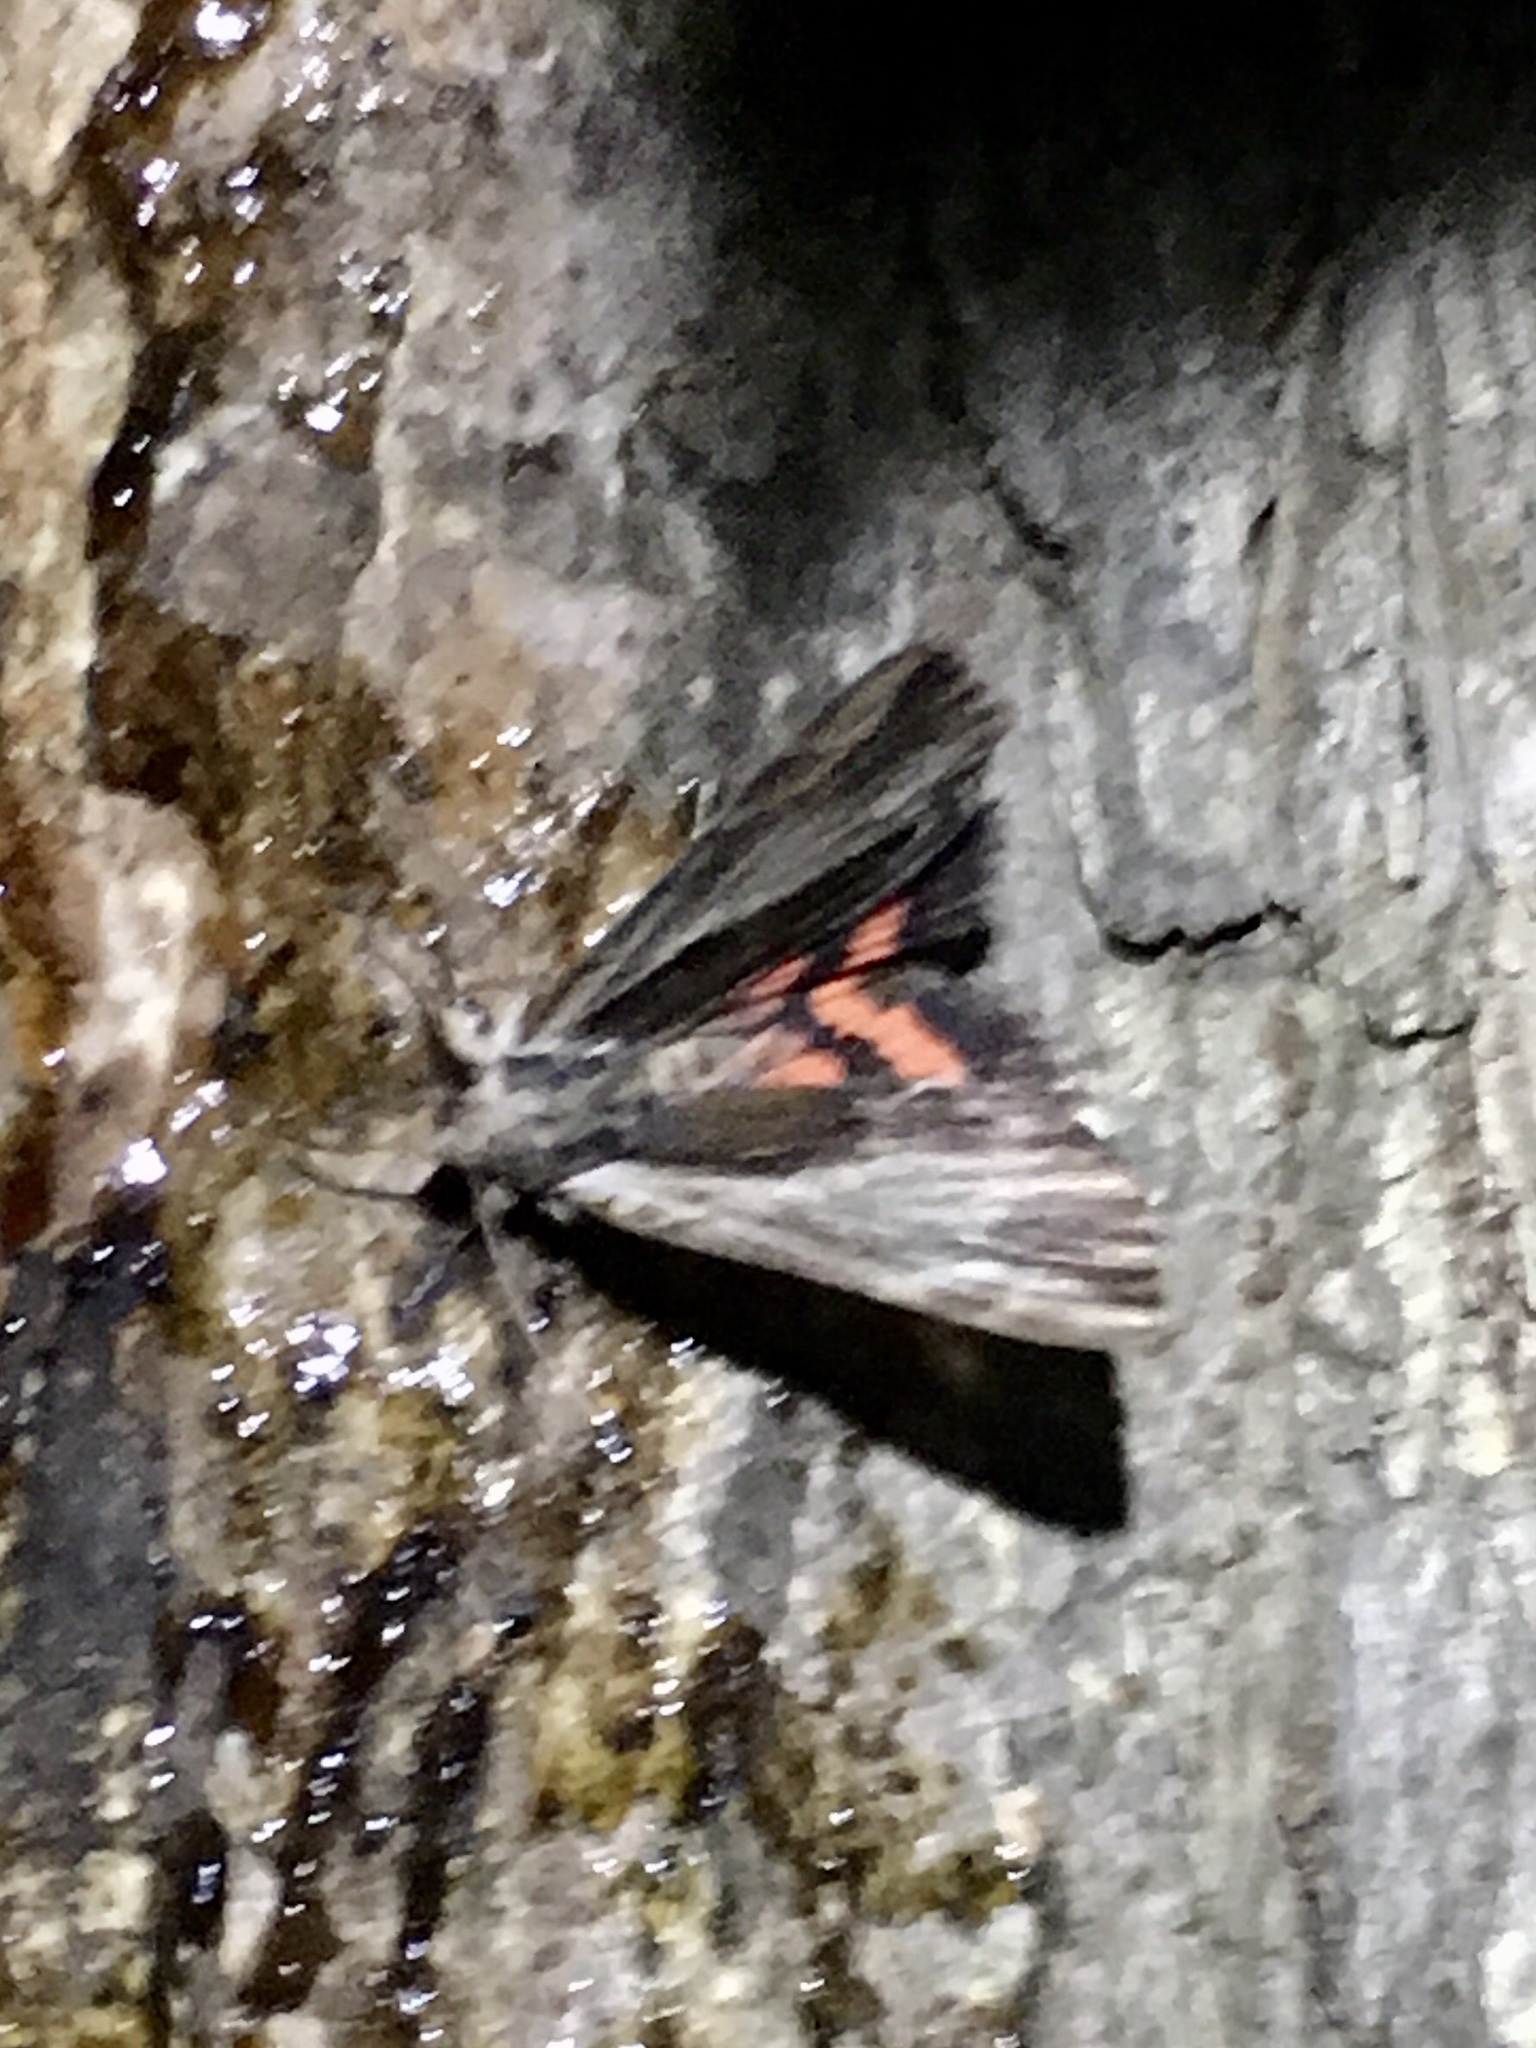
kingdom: Animalia
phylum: Arthropoda
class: Insecta
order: Lepidoptera
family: Erebidae
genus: Catocala
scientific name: Catocala ultronia
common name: Ultronia underwing
